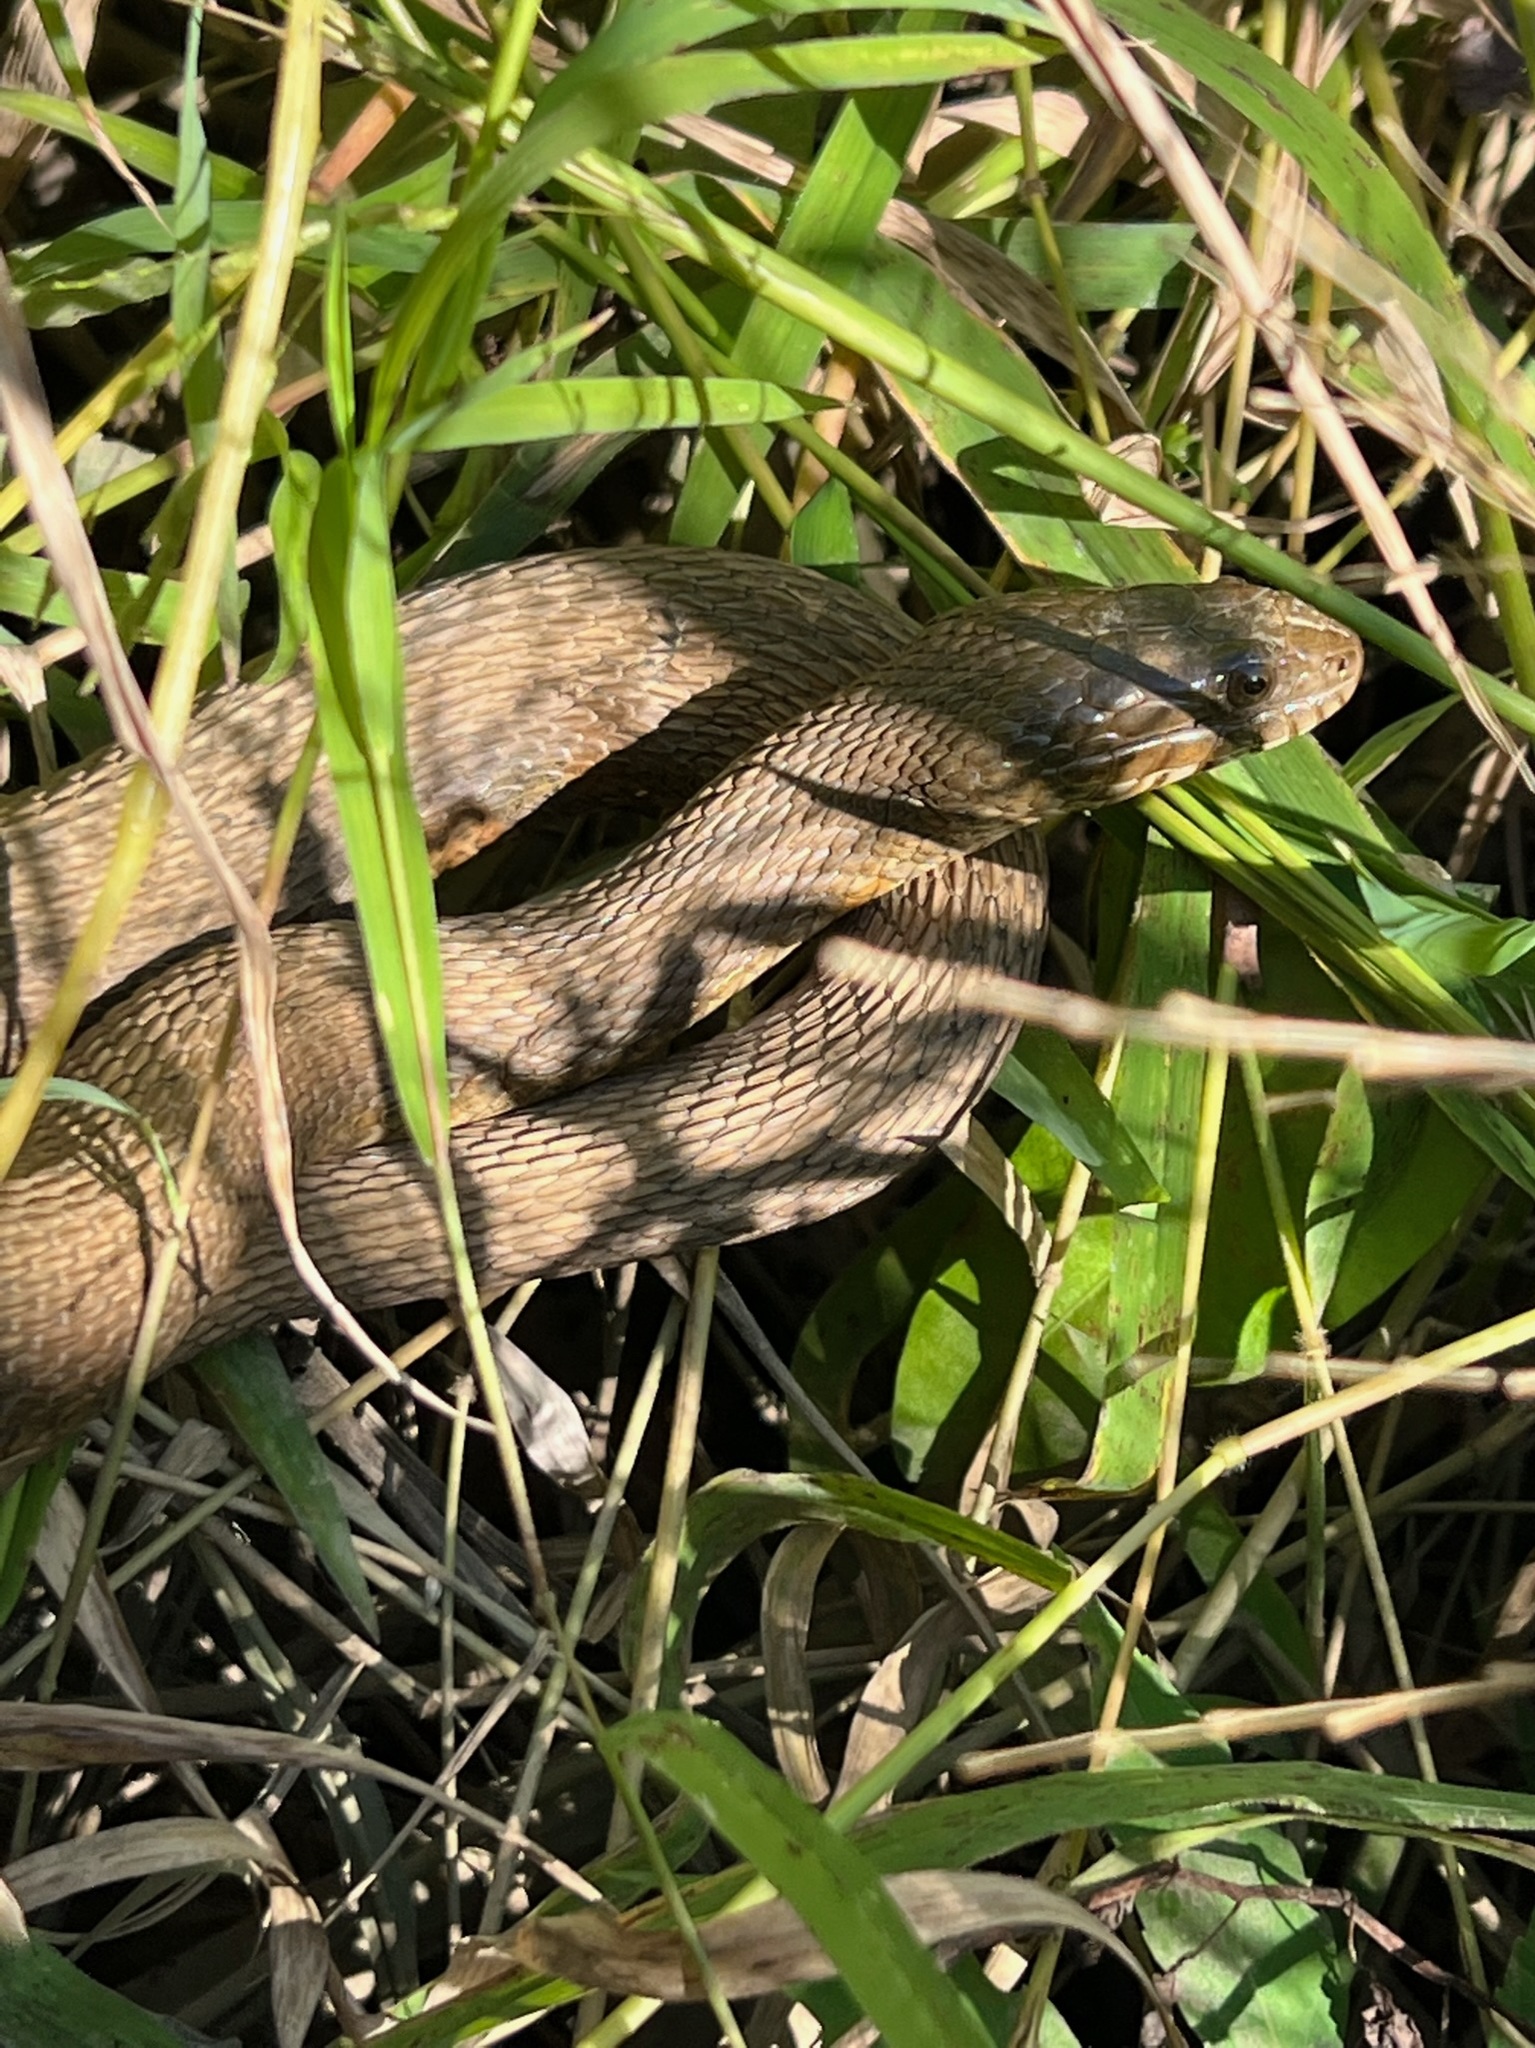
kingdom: Animalia
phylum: Chordata
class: Squamata
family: Colubridae
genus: Nerodia
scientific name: Nerodia sipedon
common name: Northern water snake
